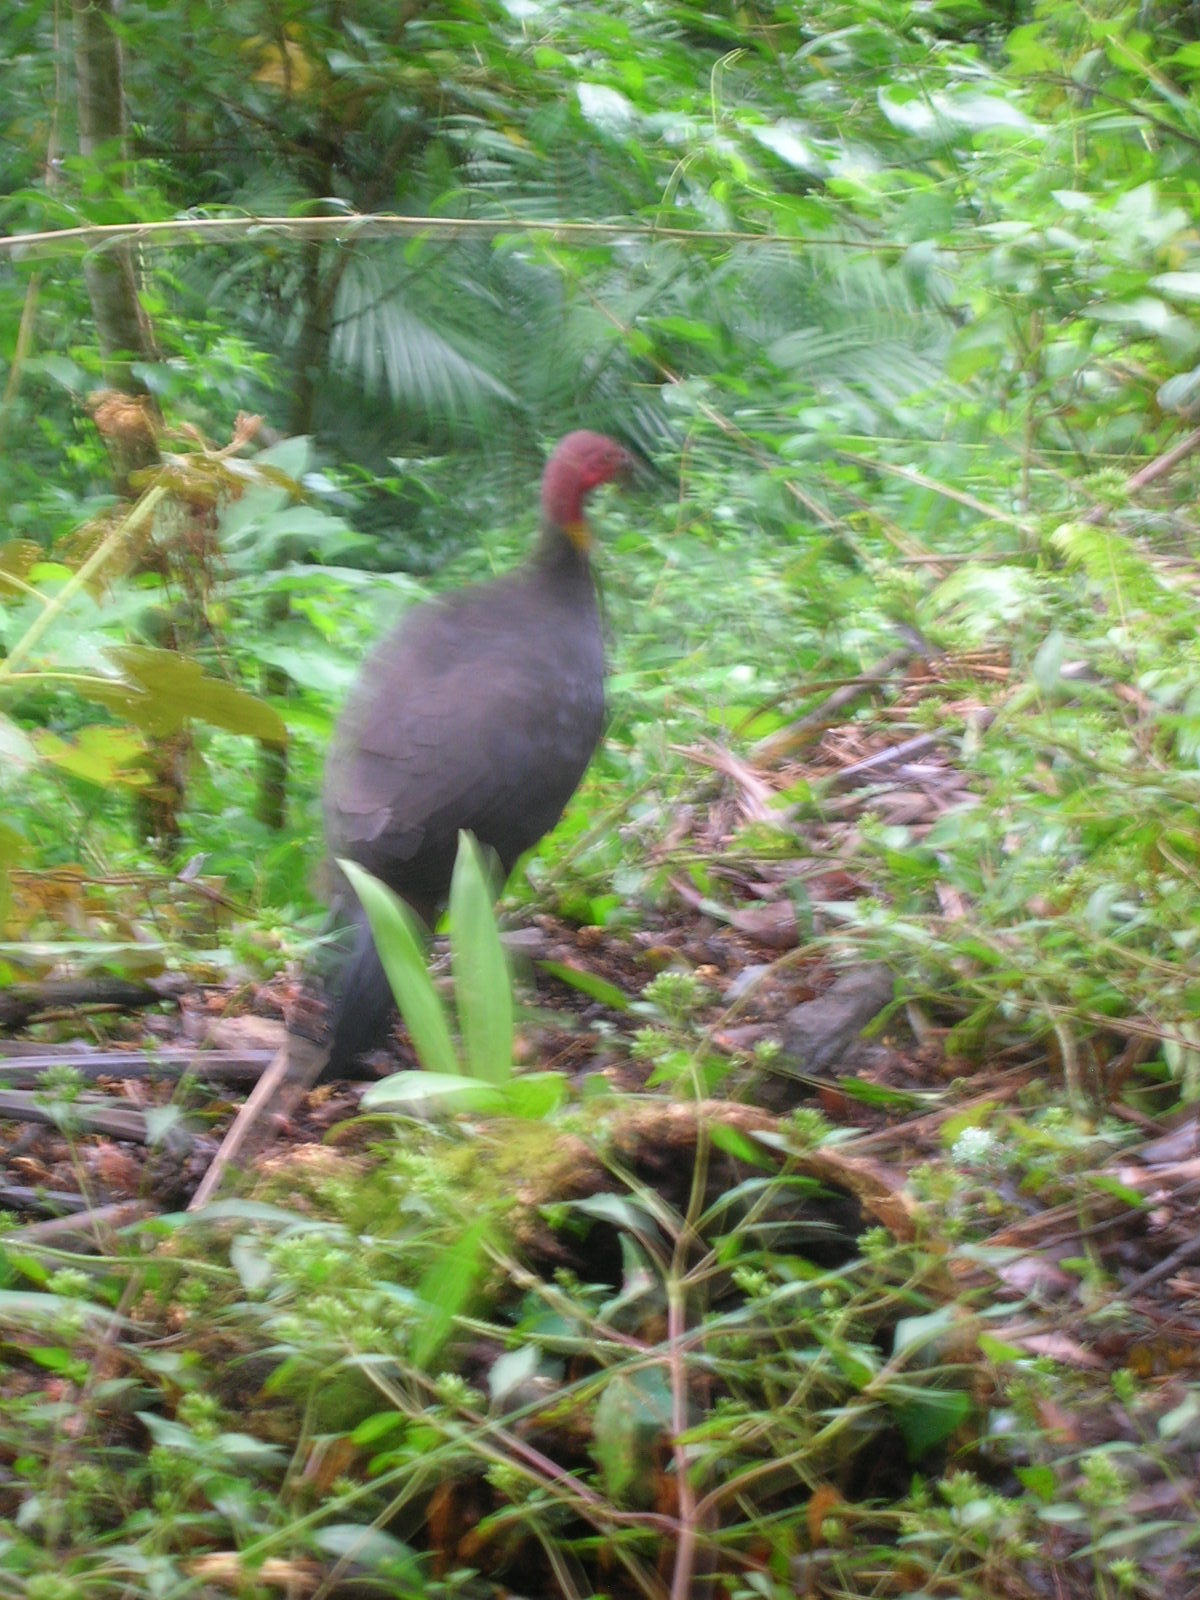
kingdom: Animalia
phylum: Chordata
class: Aves
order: Galliformes
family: Megapodiidae
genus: Alectura
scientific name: Alectura lathami
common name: Australian brushturkey
